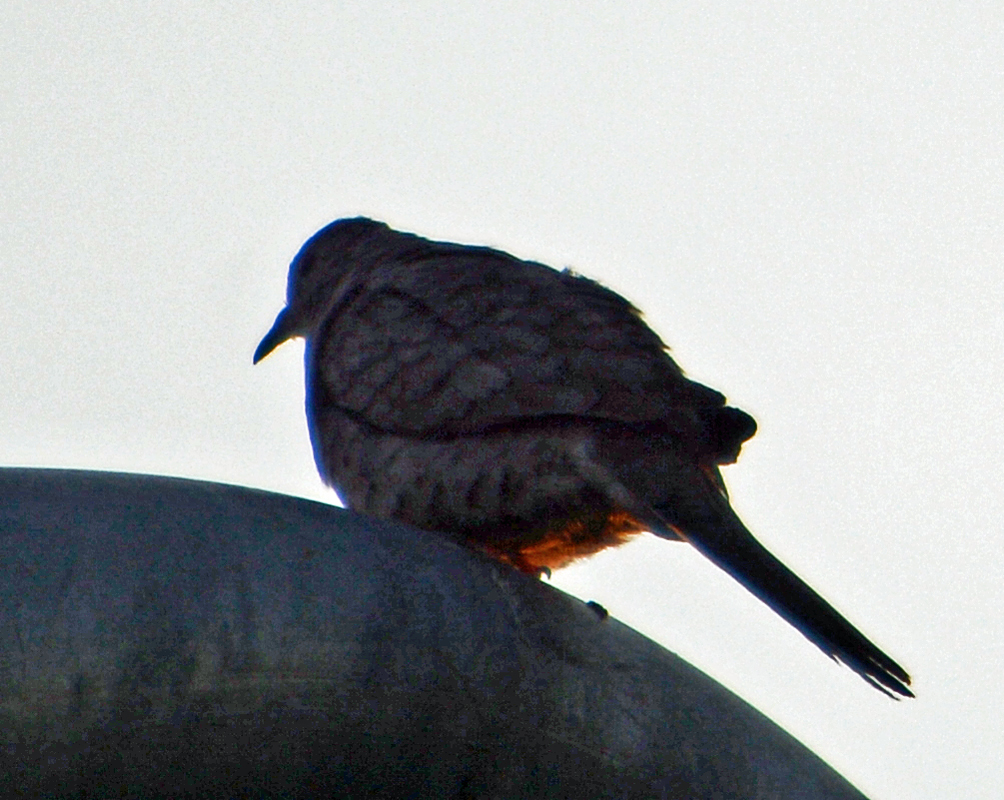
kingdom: Animalia
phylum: Chordata
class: Aves
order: Columbiformes
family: Columbidae
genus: Columbina
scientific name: Columbina inca
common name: Inca dove
